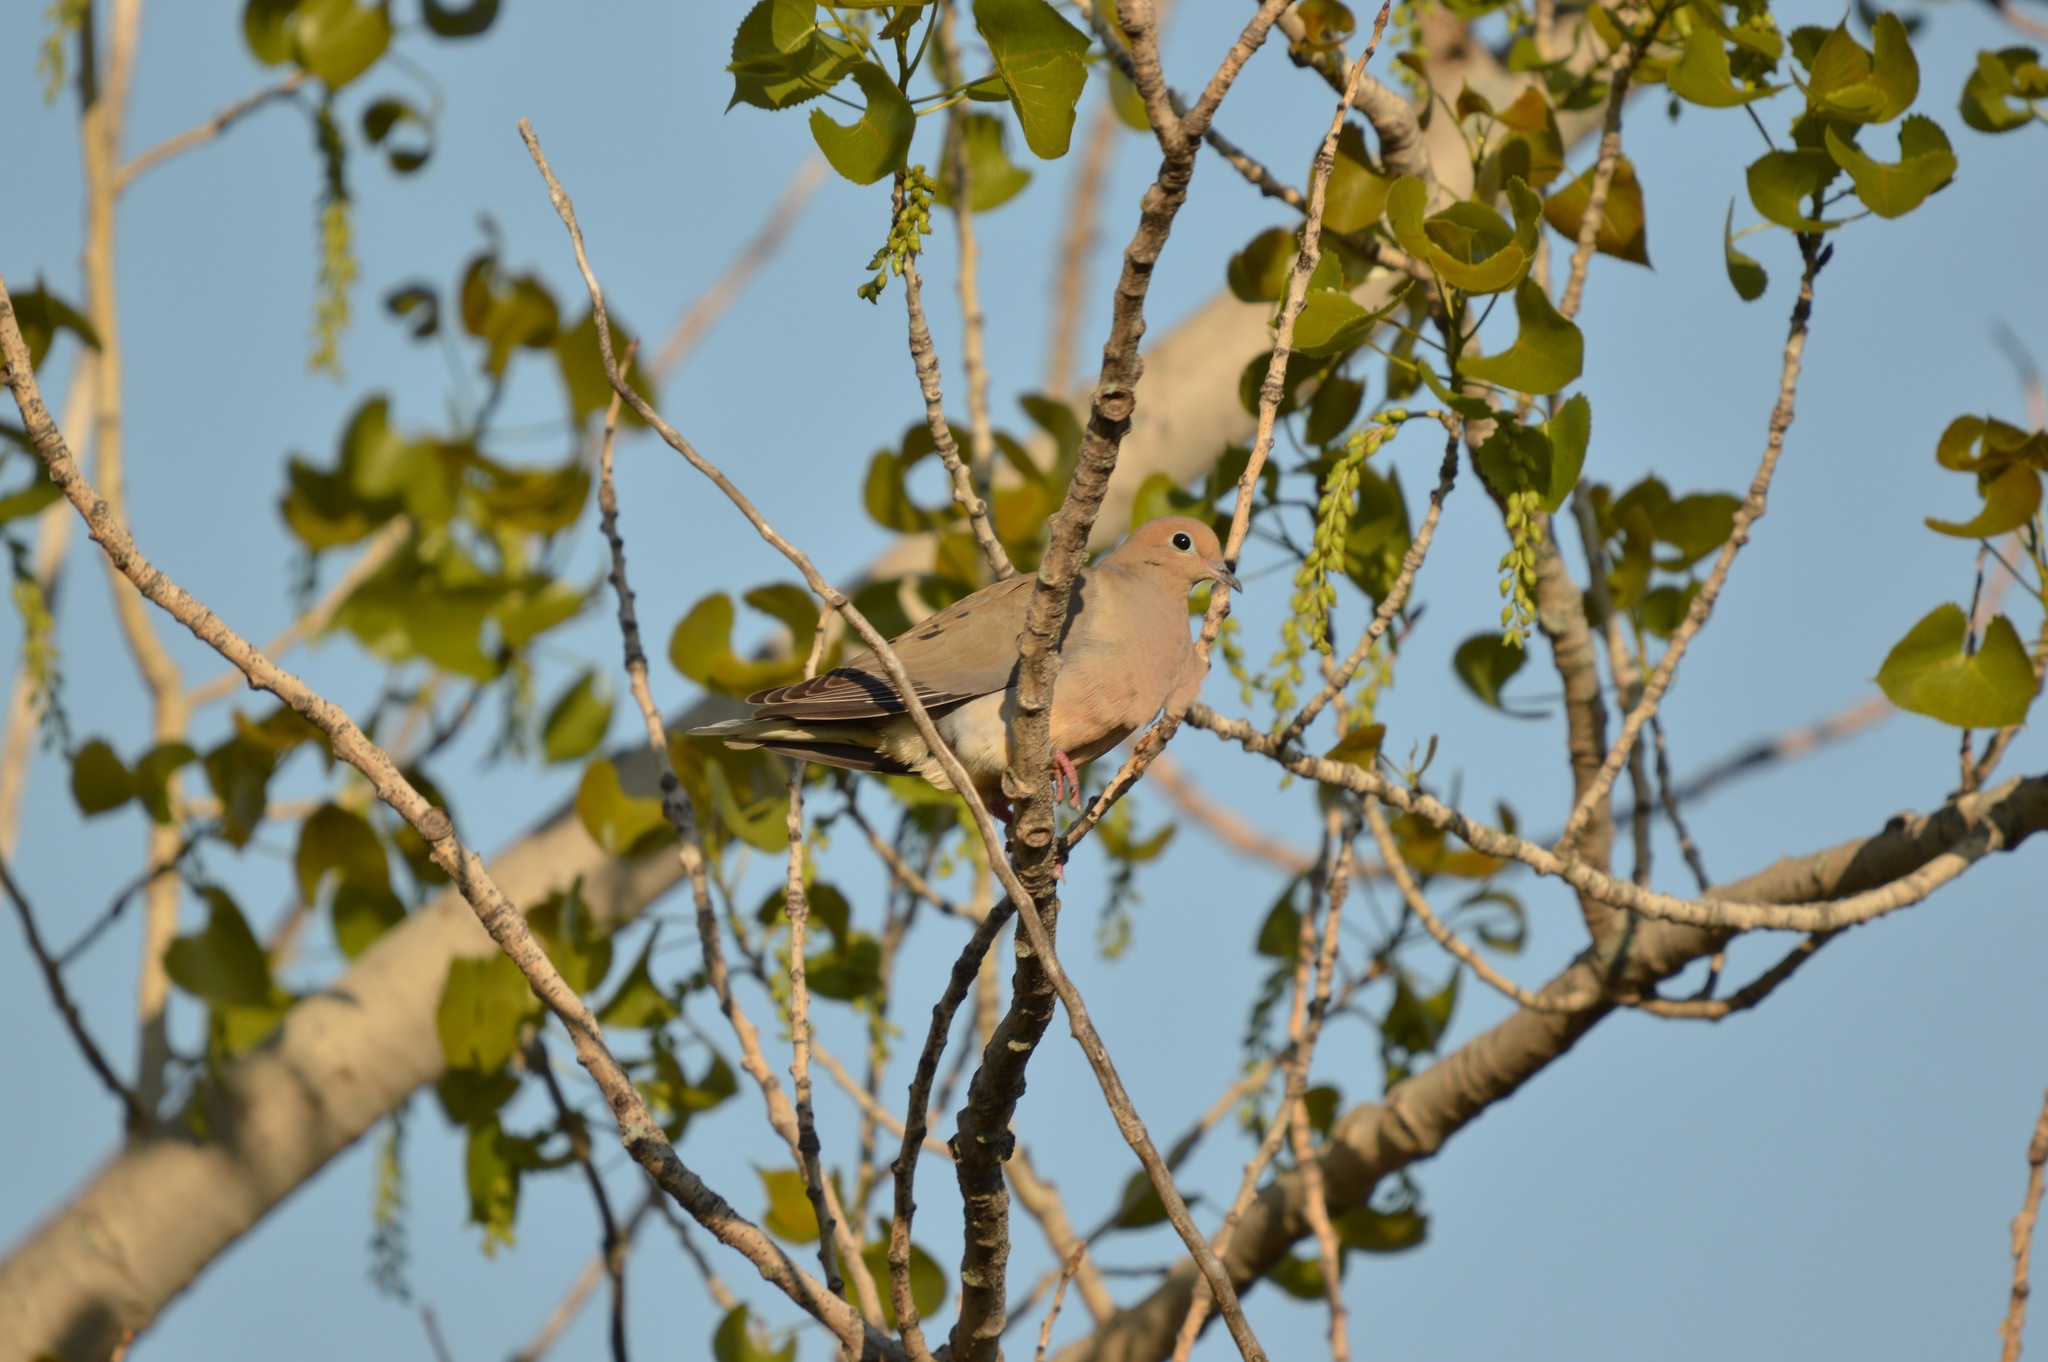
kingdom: Animalia
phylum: Chordata
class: Aves
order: Columbiformes
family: Columbidae
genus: Zenaida
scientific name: Zenaida macroura
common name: Mourning dove
